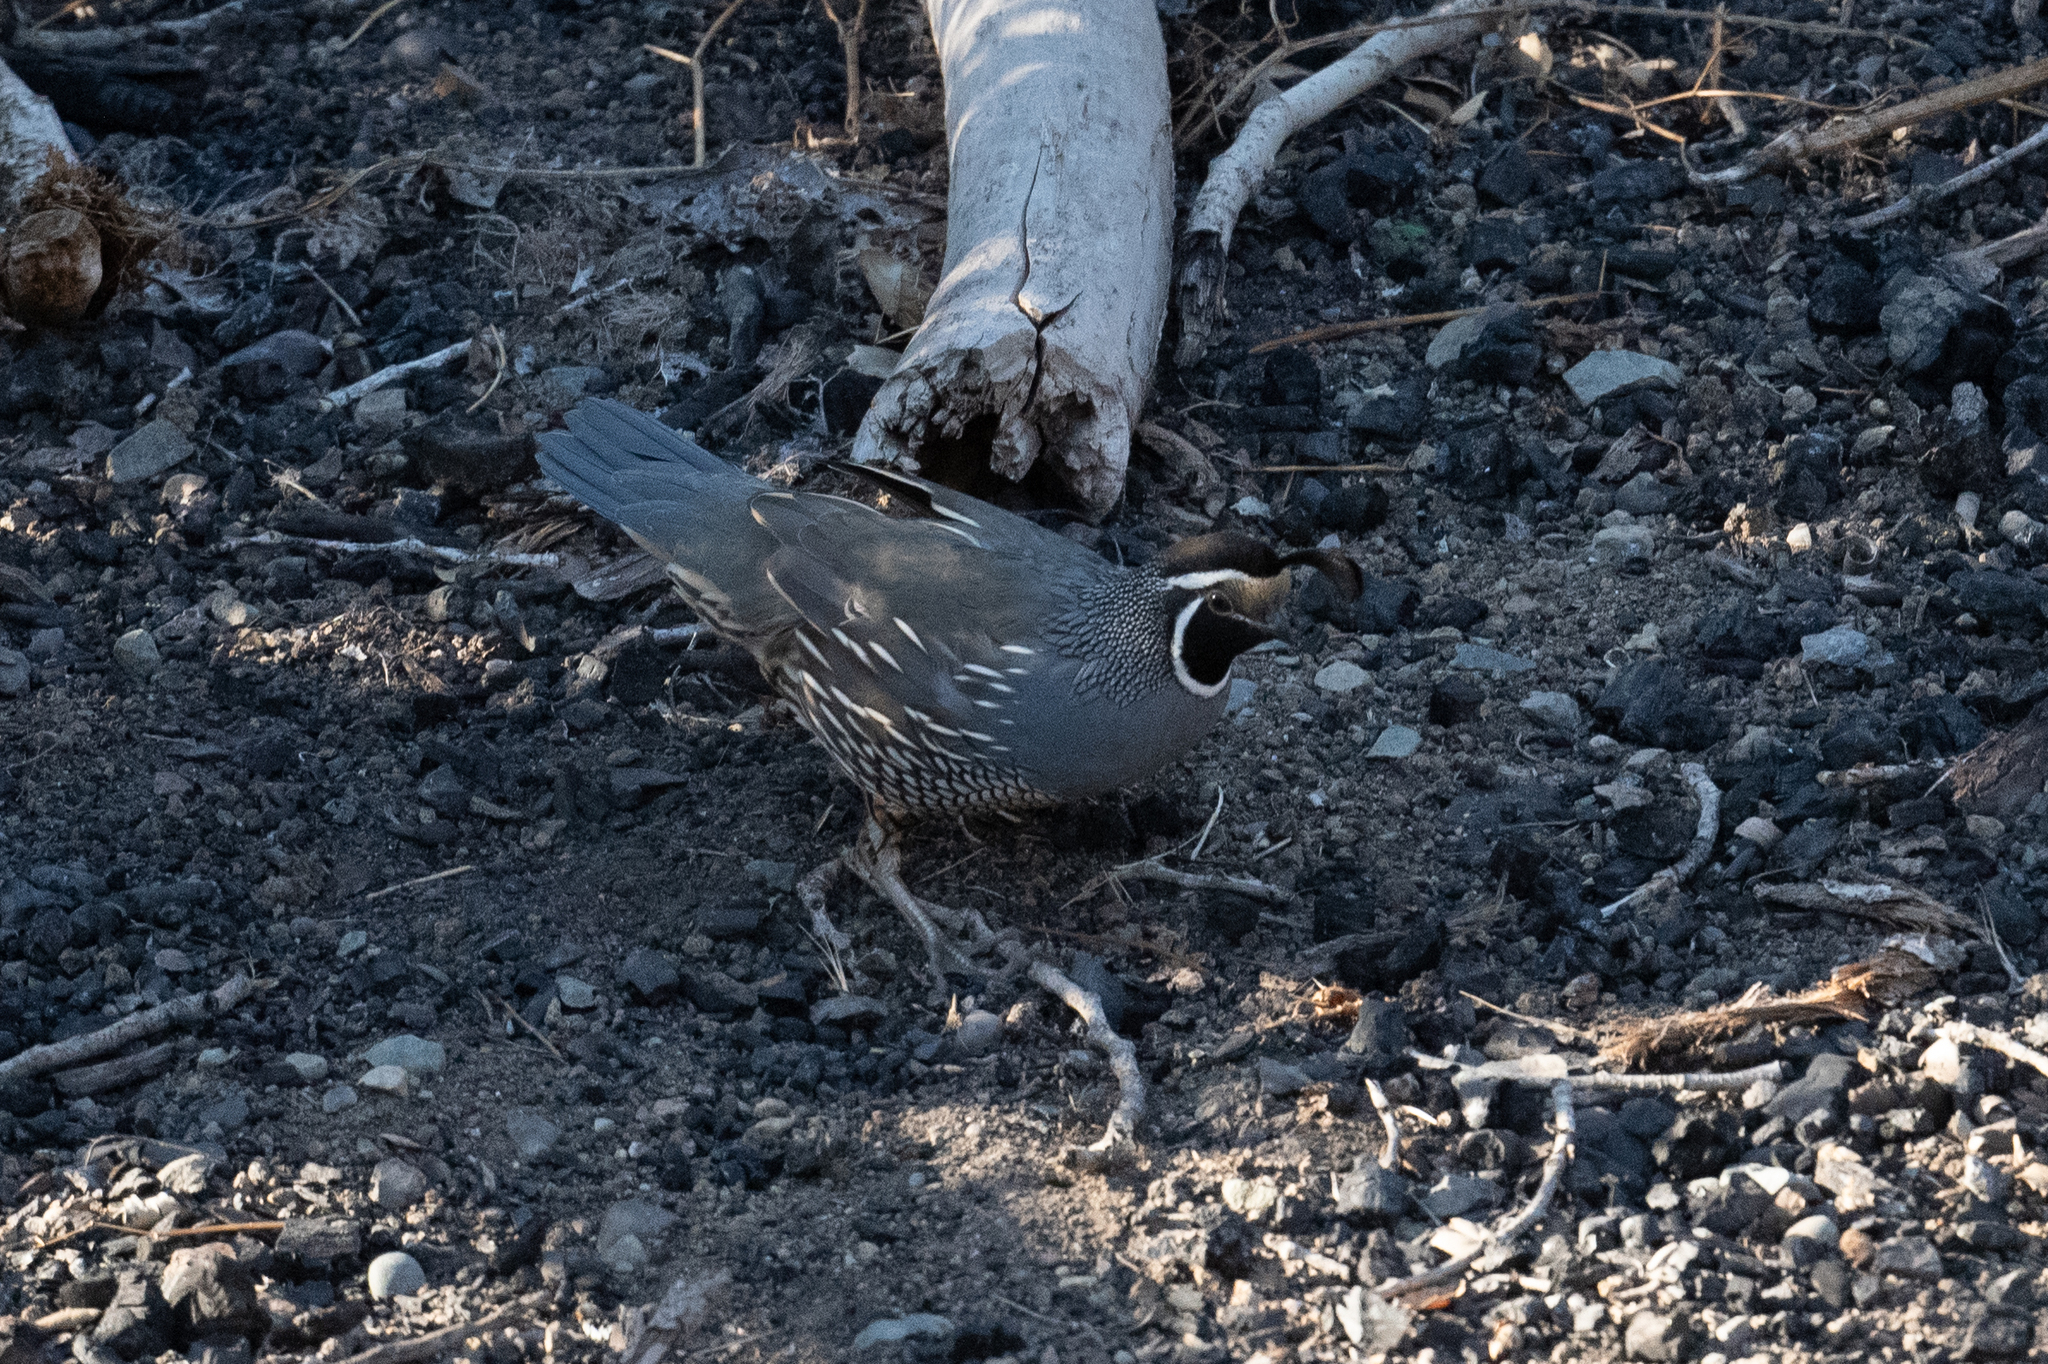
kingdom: Animalia
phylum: Chordata
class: Aves
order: Galliformes
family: Odontophoridae
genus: Callipepla
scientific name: Callipepla californica
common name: California quail
